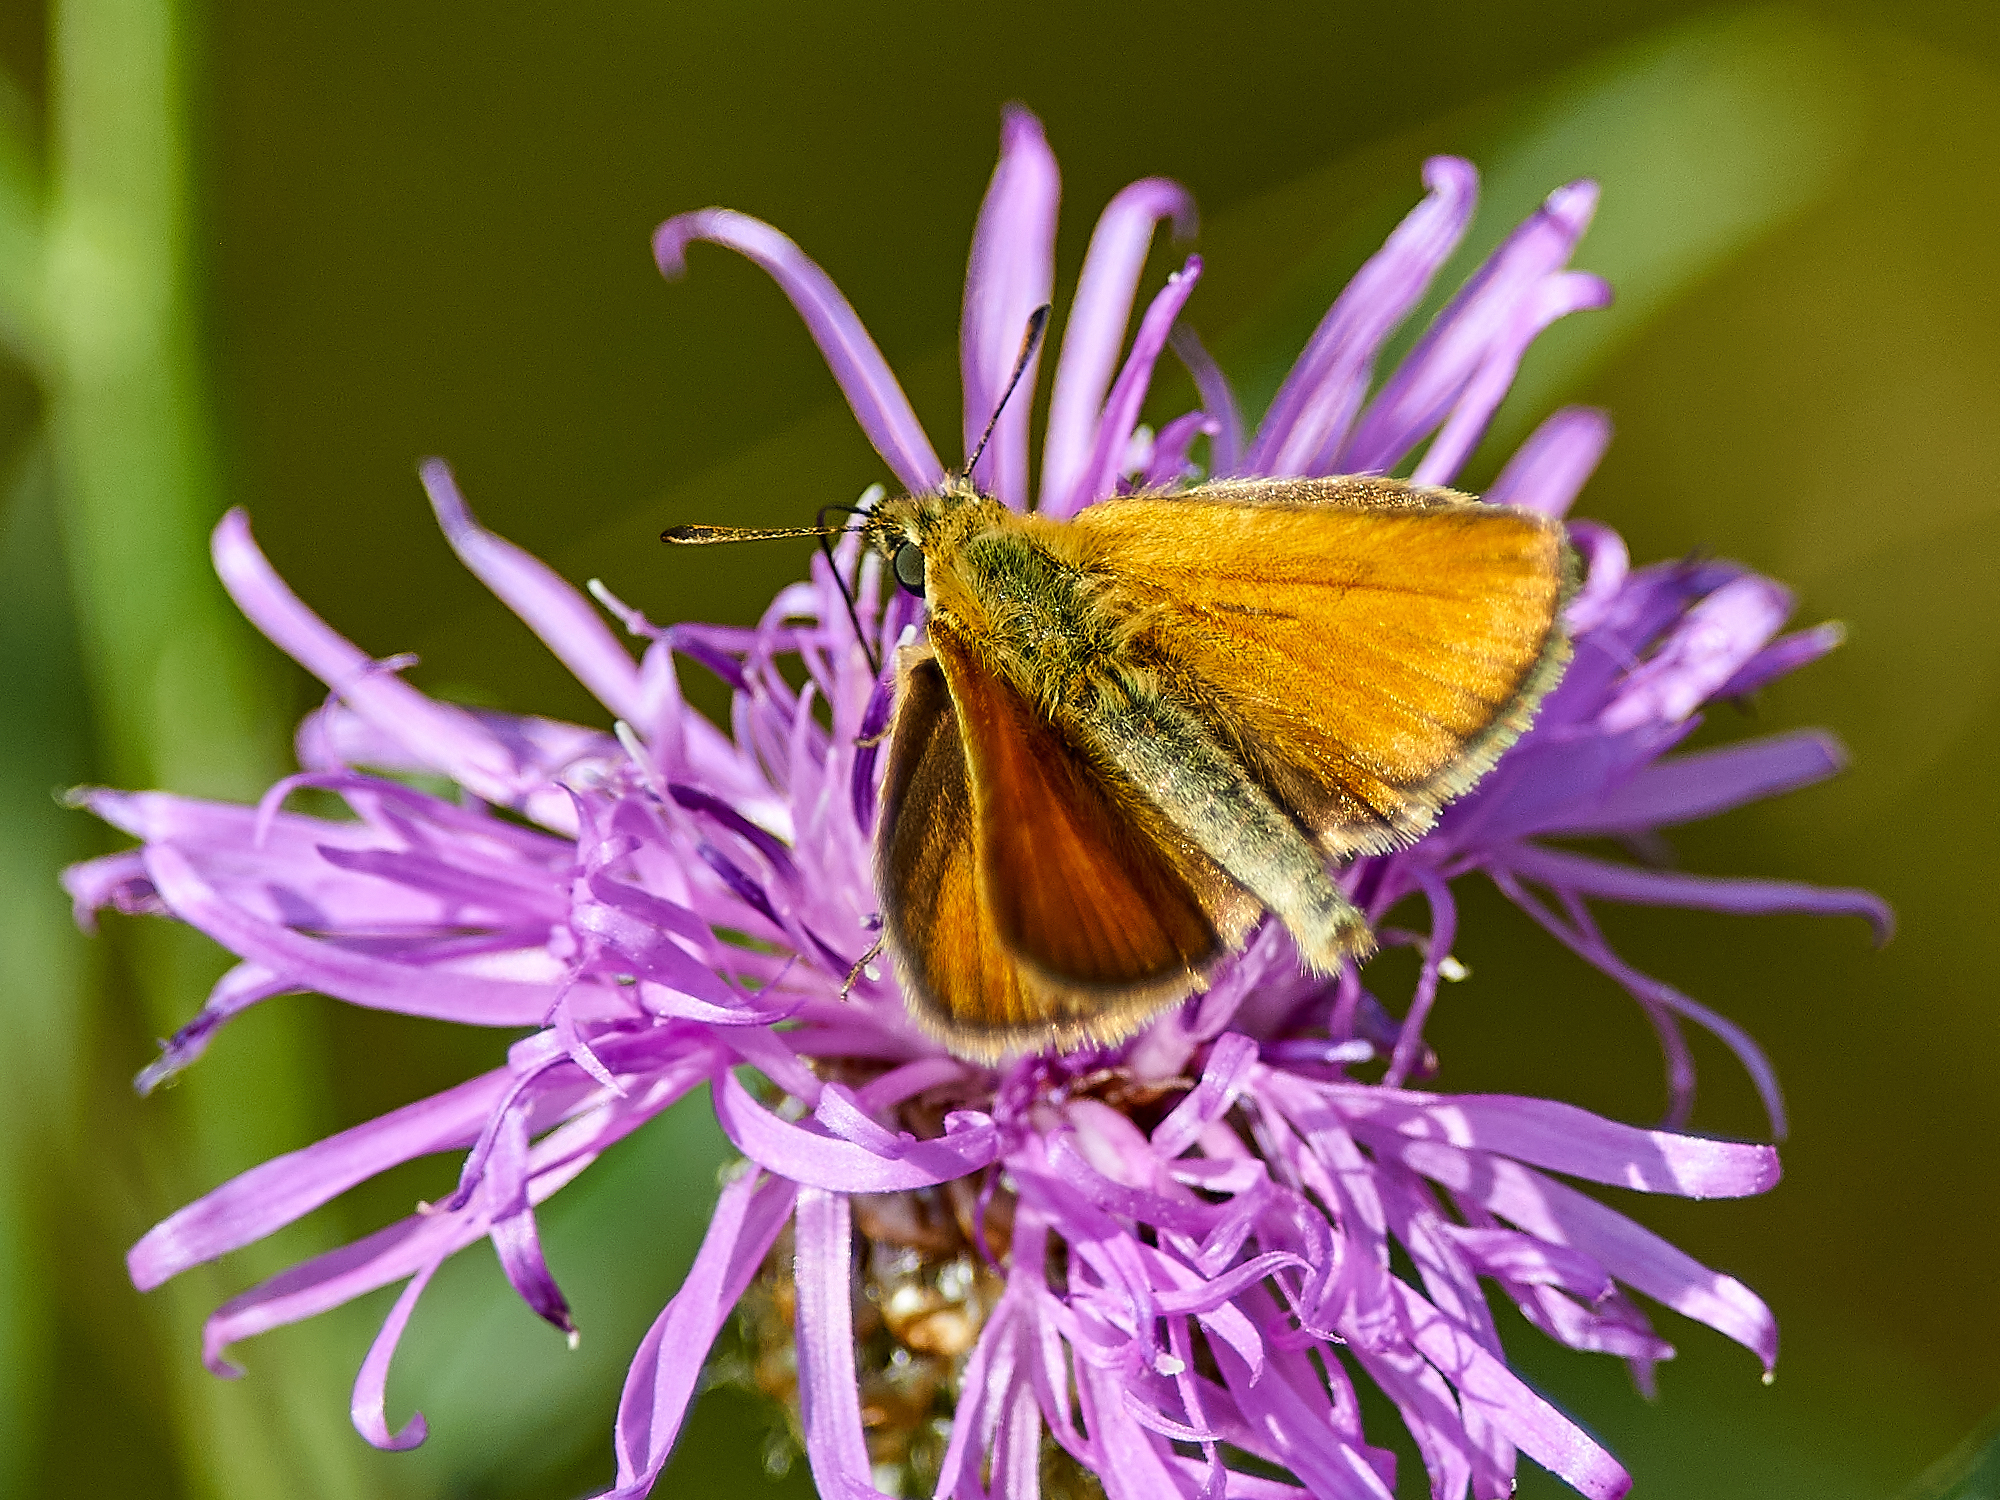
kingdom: Animalia
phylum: Arthropoda
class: Insecta
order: Lepidoptera
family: Hesperiidae
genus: Thymelicus
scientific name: Thymelicus lineola
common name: Essex skipper
